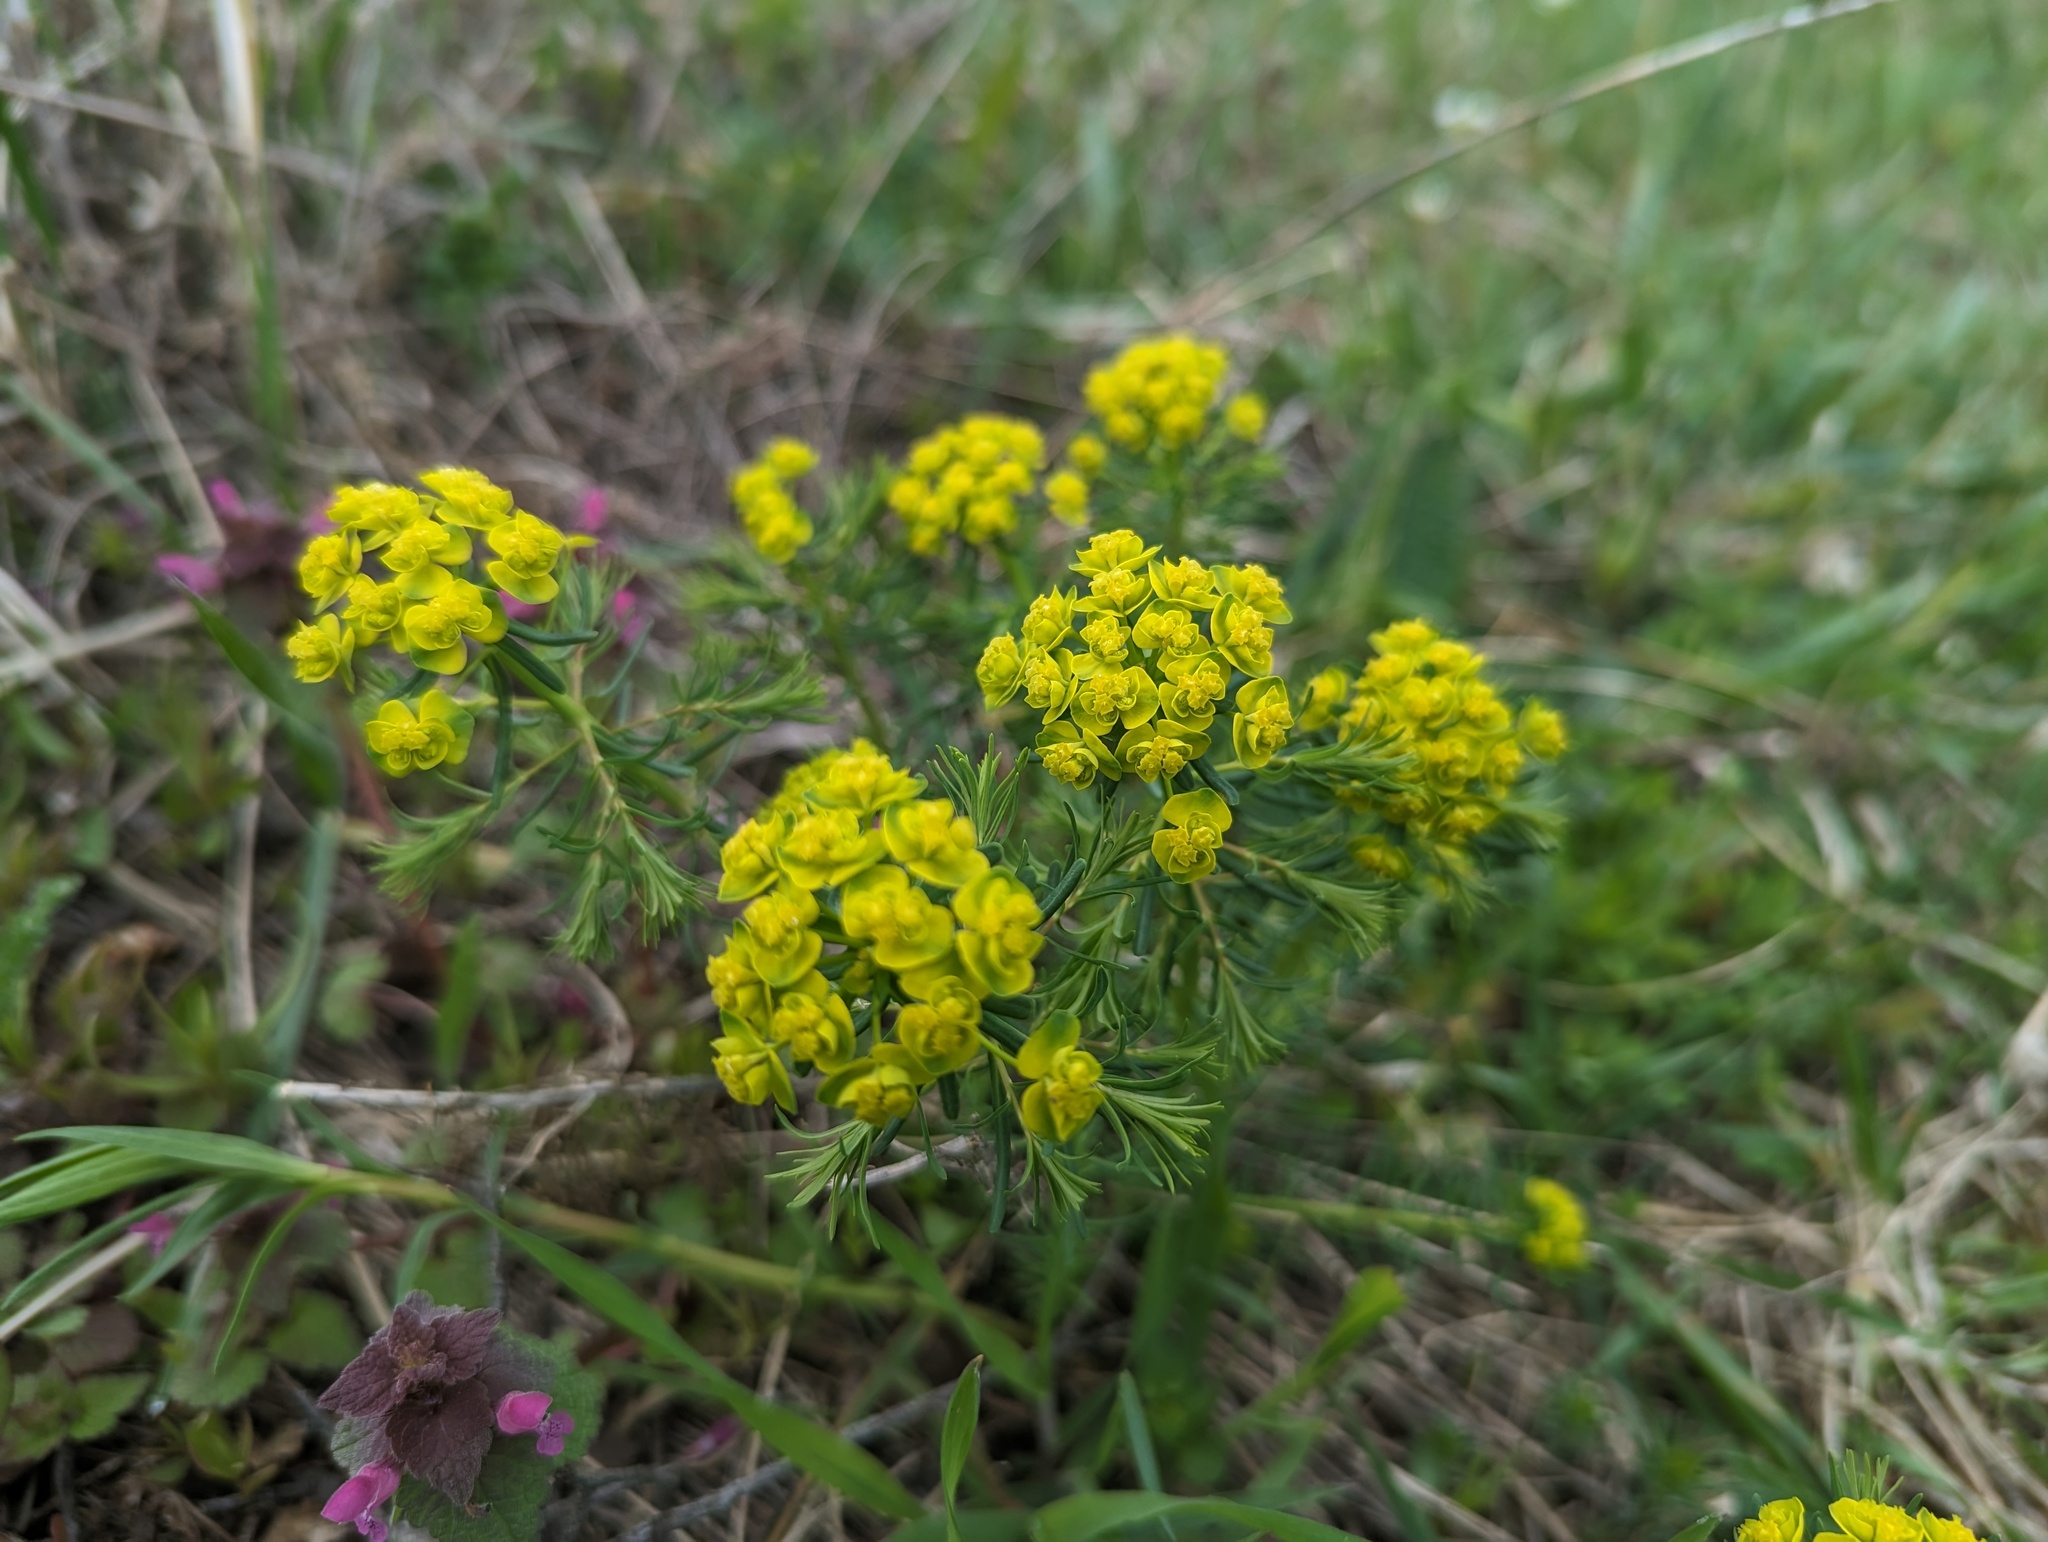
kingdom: Plantae
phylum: Tracheophyta
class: Magnoliopsida
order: Malpighiales
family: Euphorbiaceae
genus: Euphorbia
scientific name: Euphorbia cyparissias
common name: Cypress spurge
